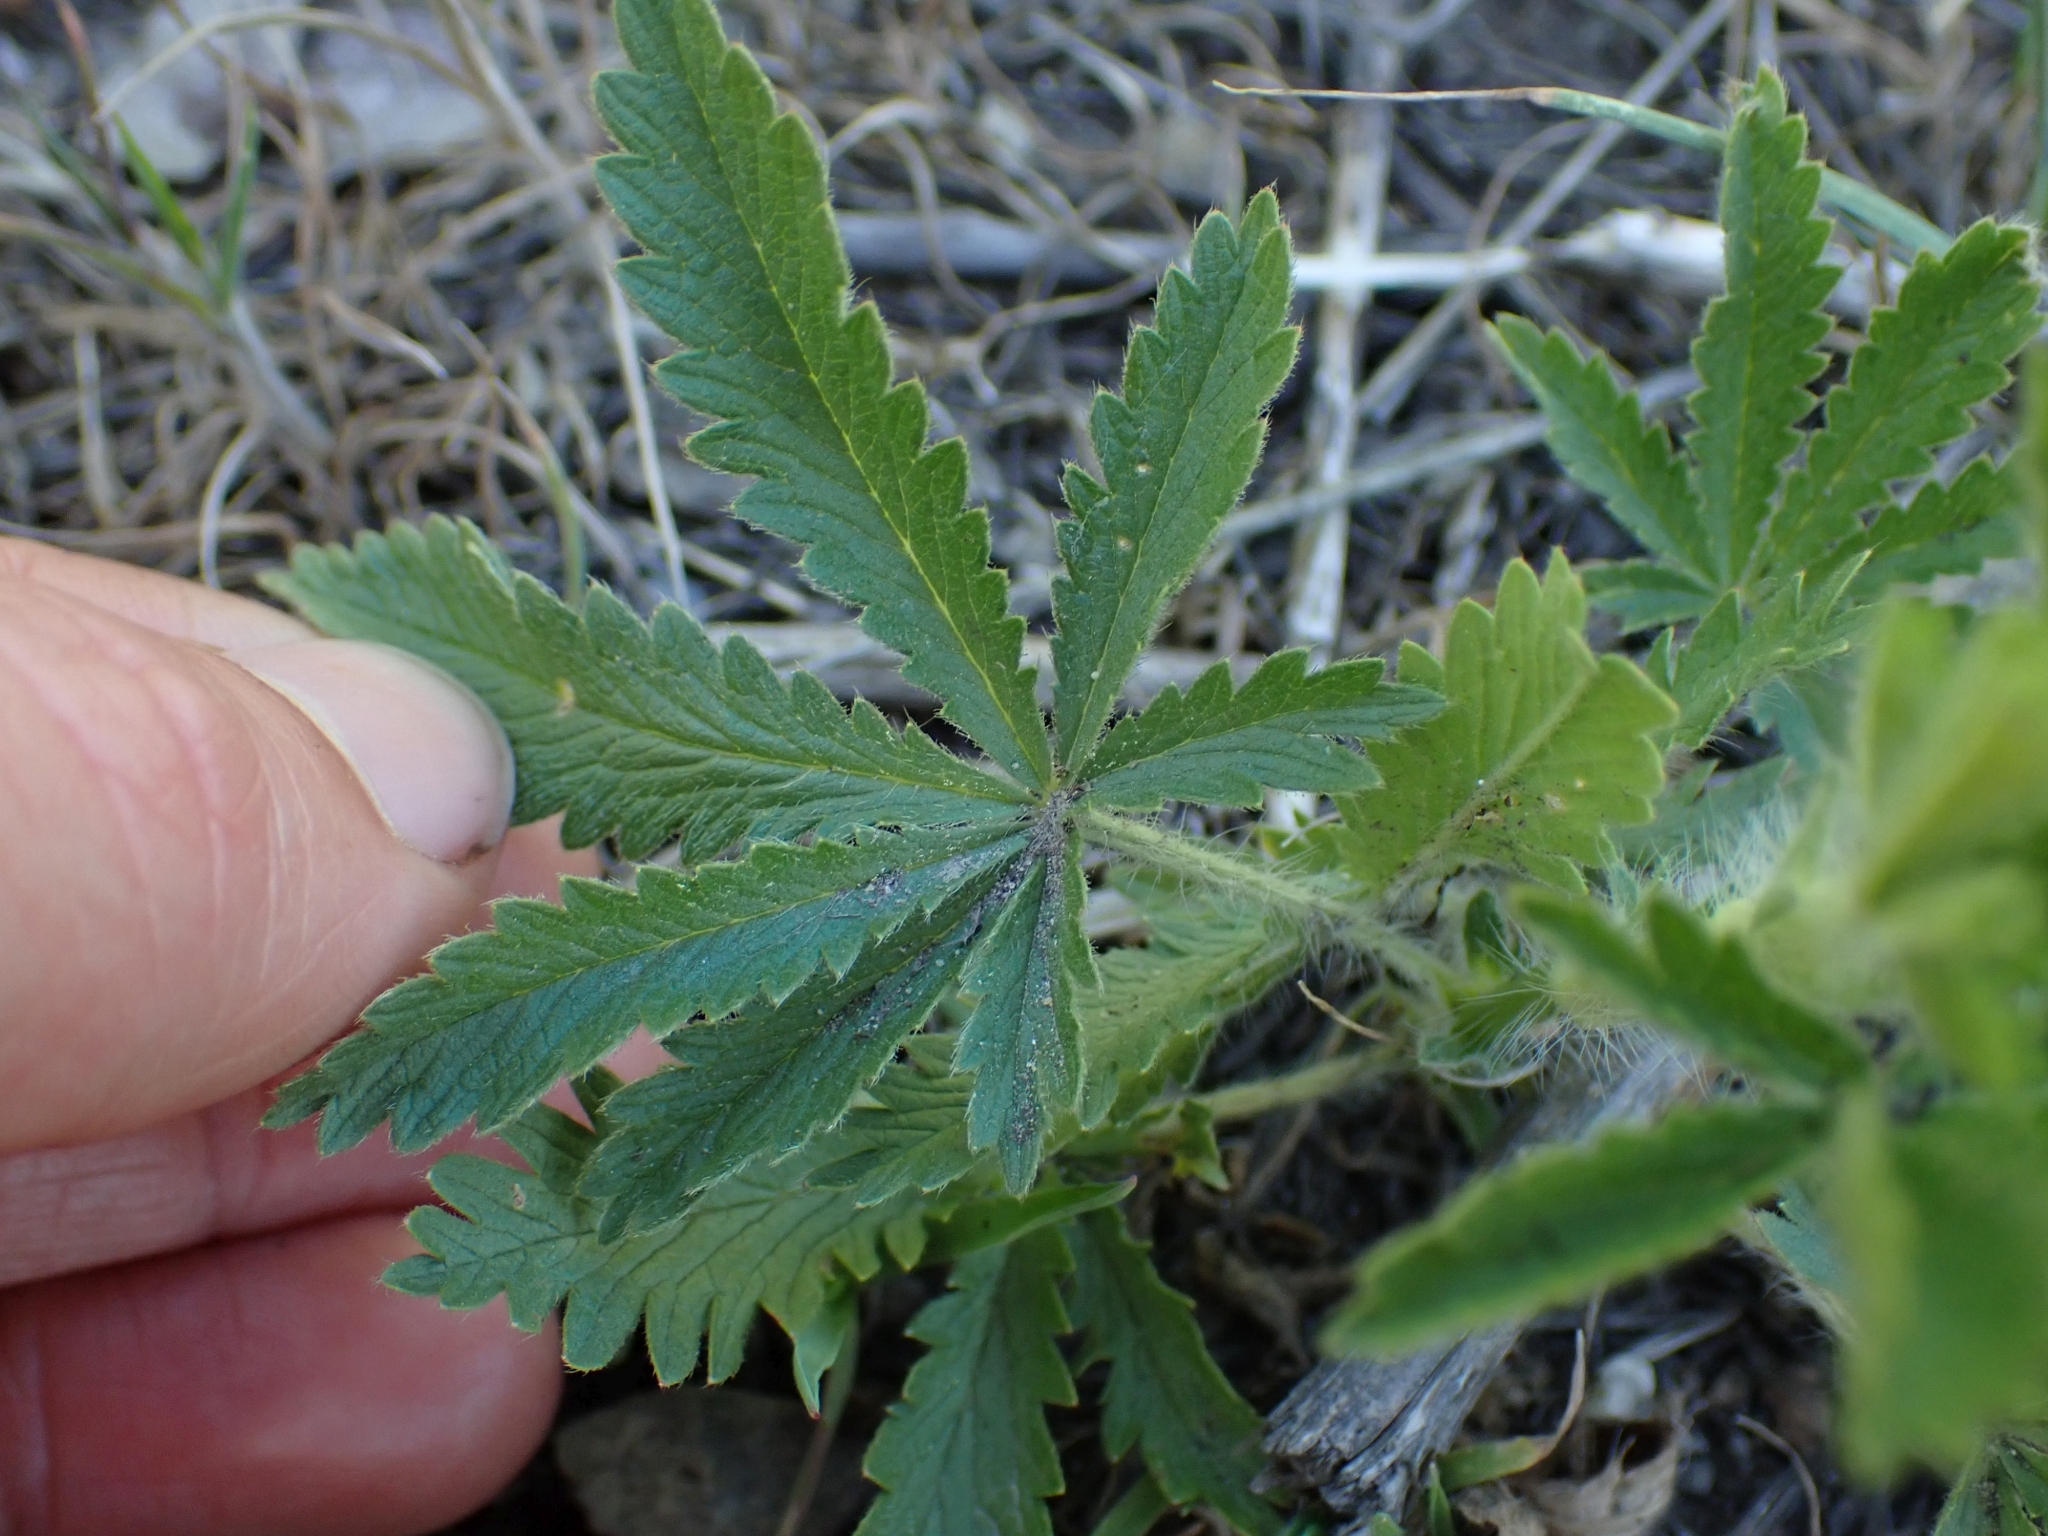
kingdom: Plantae
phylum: Tracheophyta
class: Magnoliopsida
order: Rosales
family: Rosaceae
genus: Potentilla
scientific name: Potentilla recta
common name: Sulphur cinquefoil
